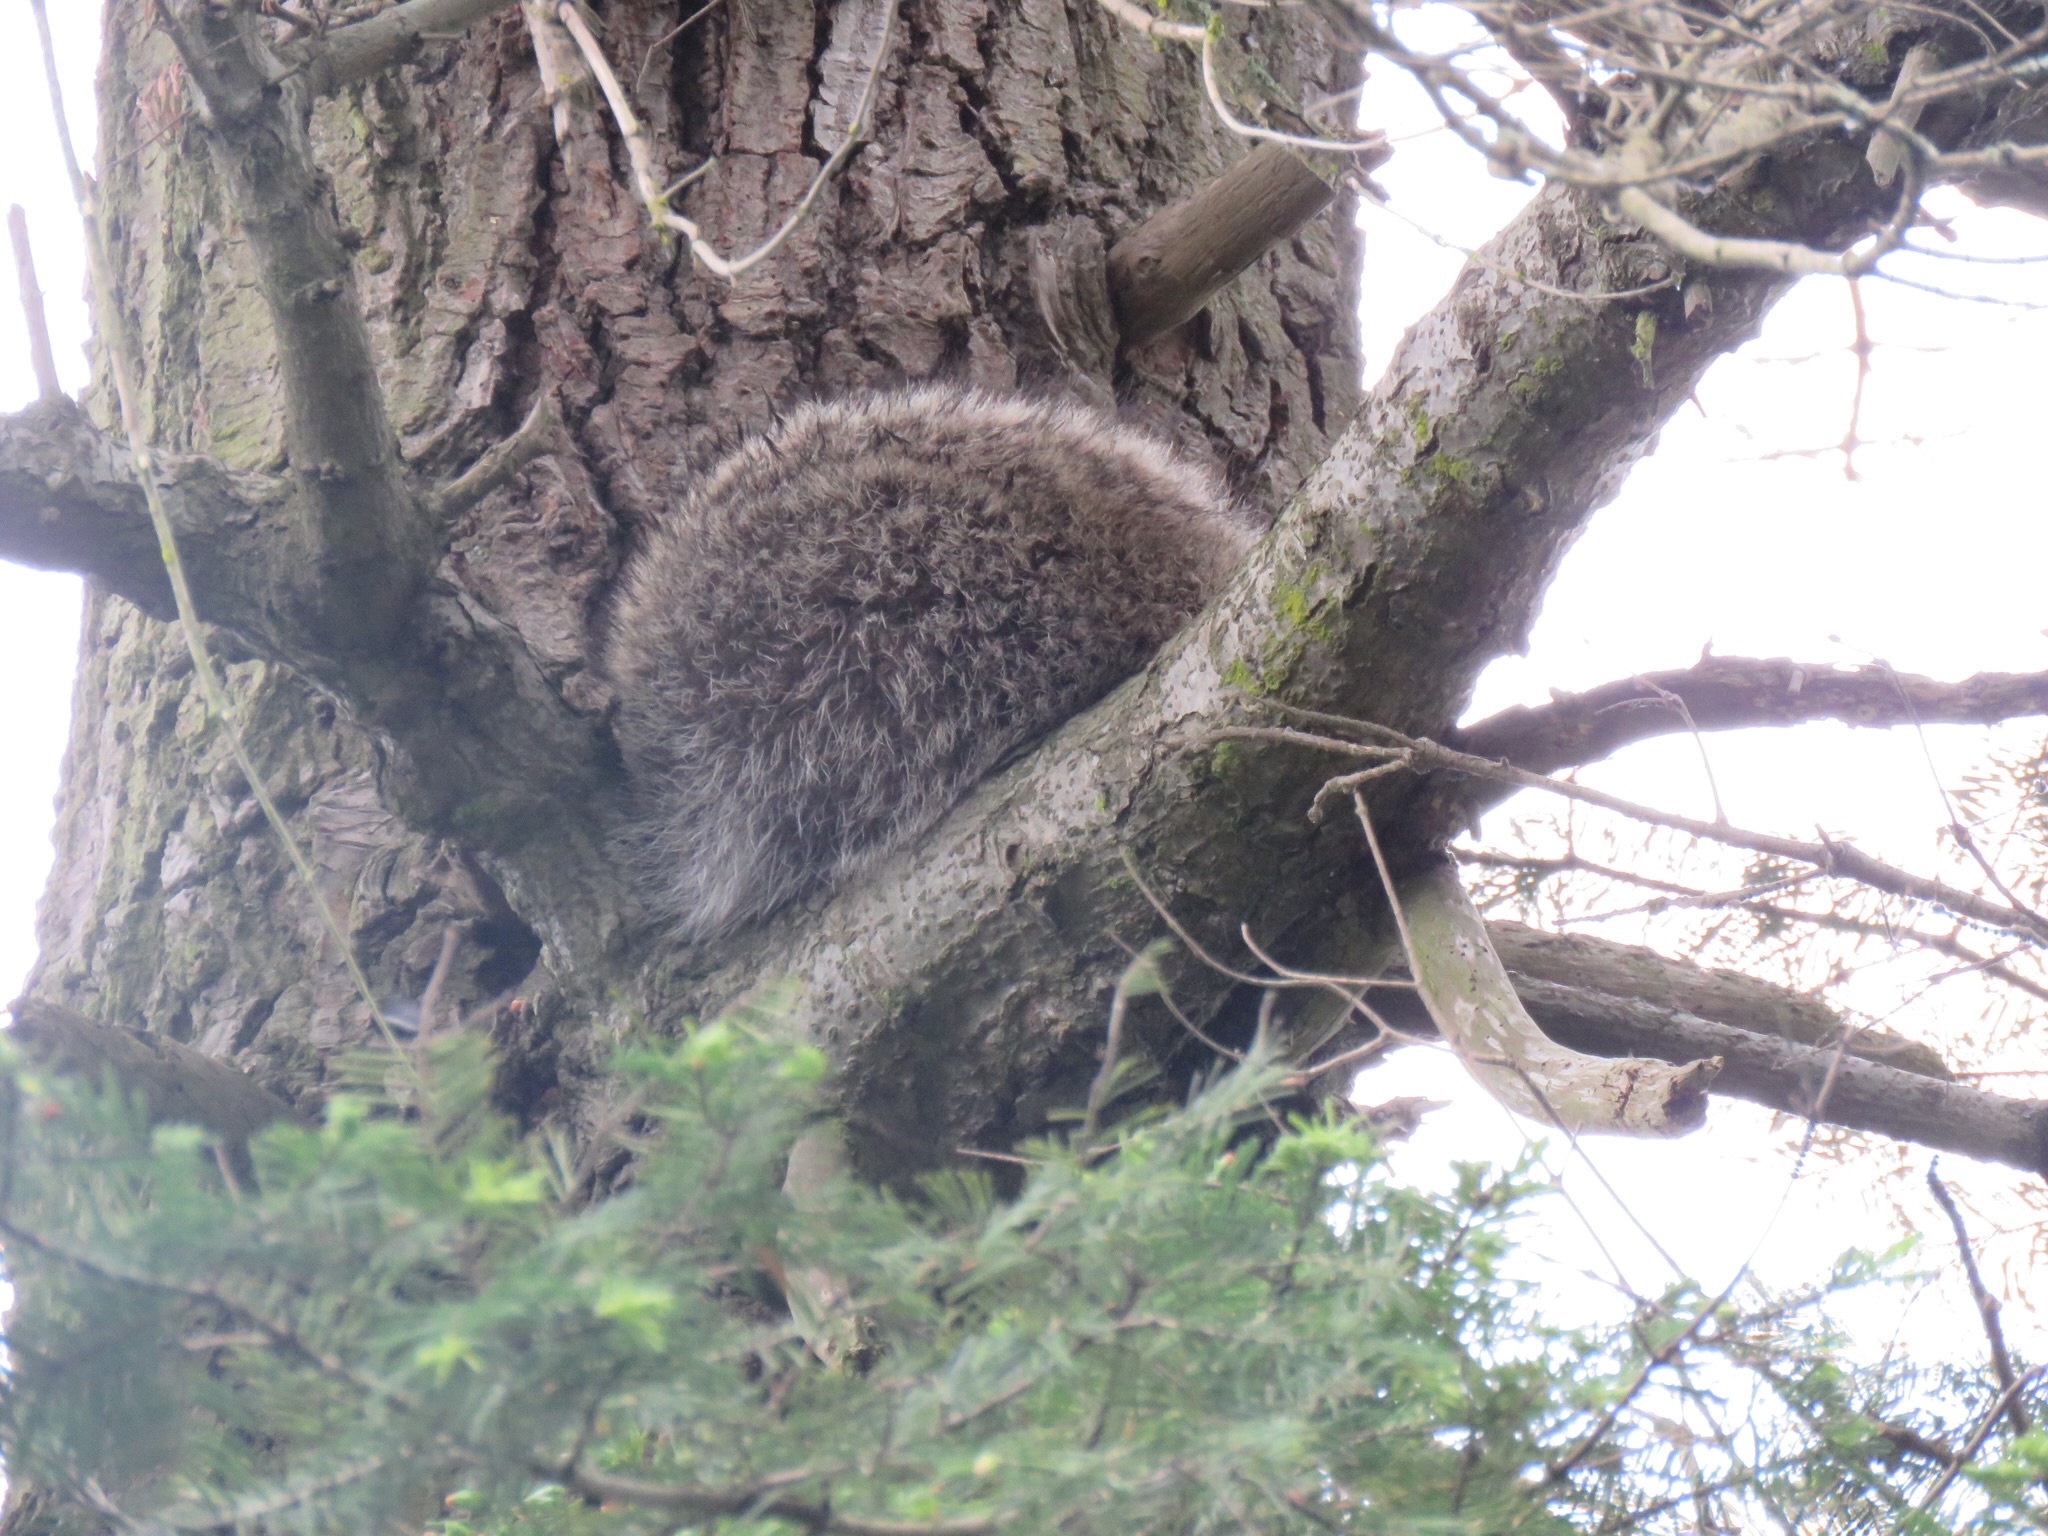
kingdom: Animalia
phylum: Chordata
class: Mammalia
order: Carnivora
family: Procyonidae
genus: Procyon
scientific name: Procyon lotor
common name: Raccoon
